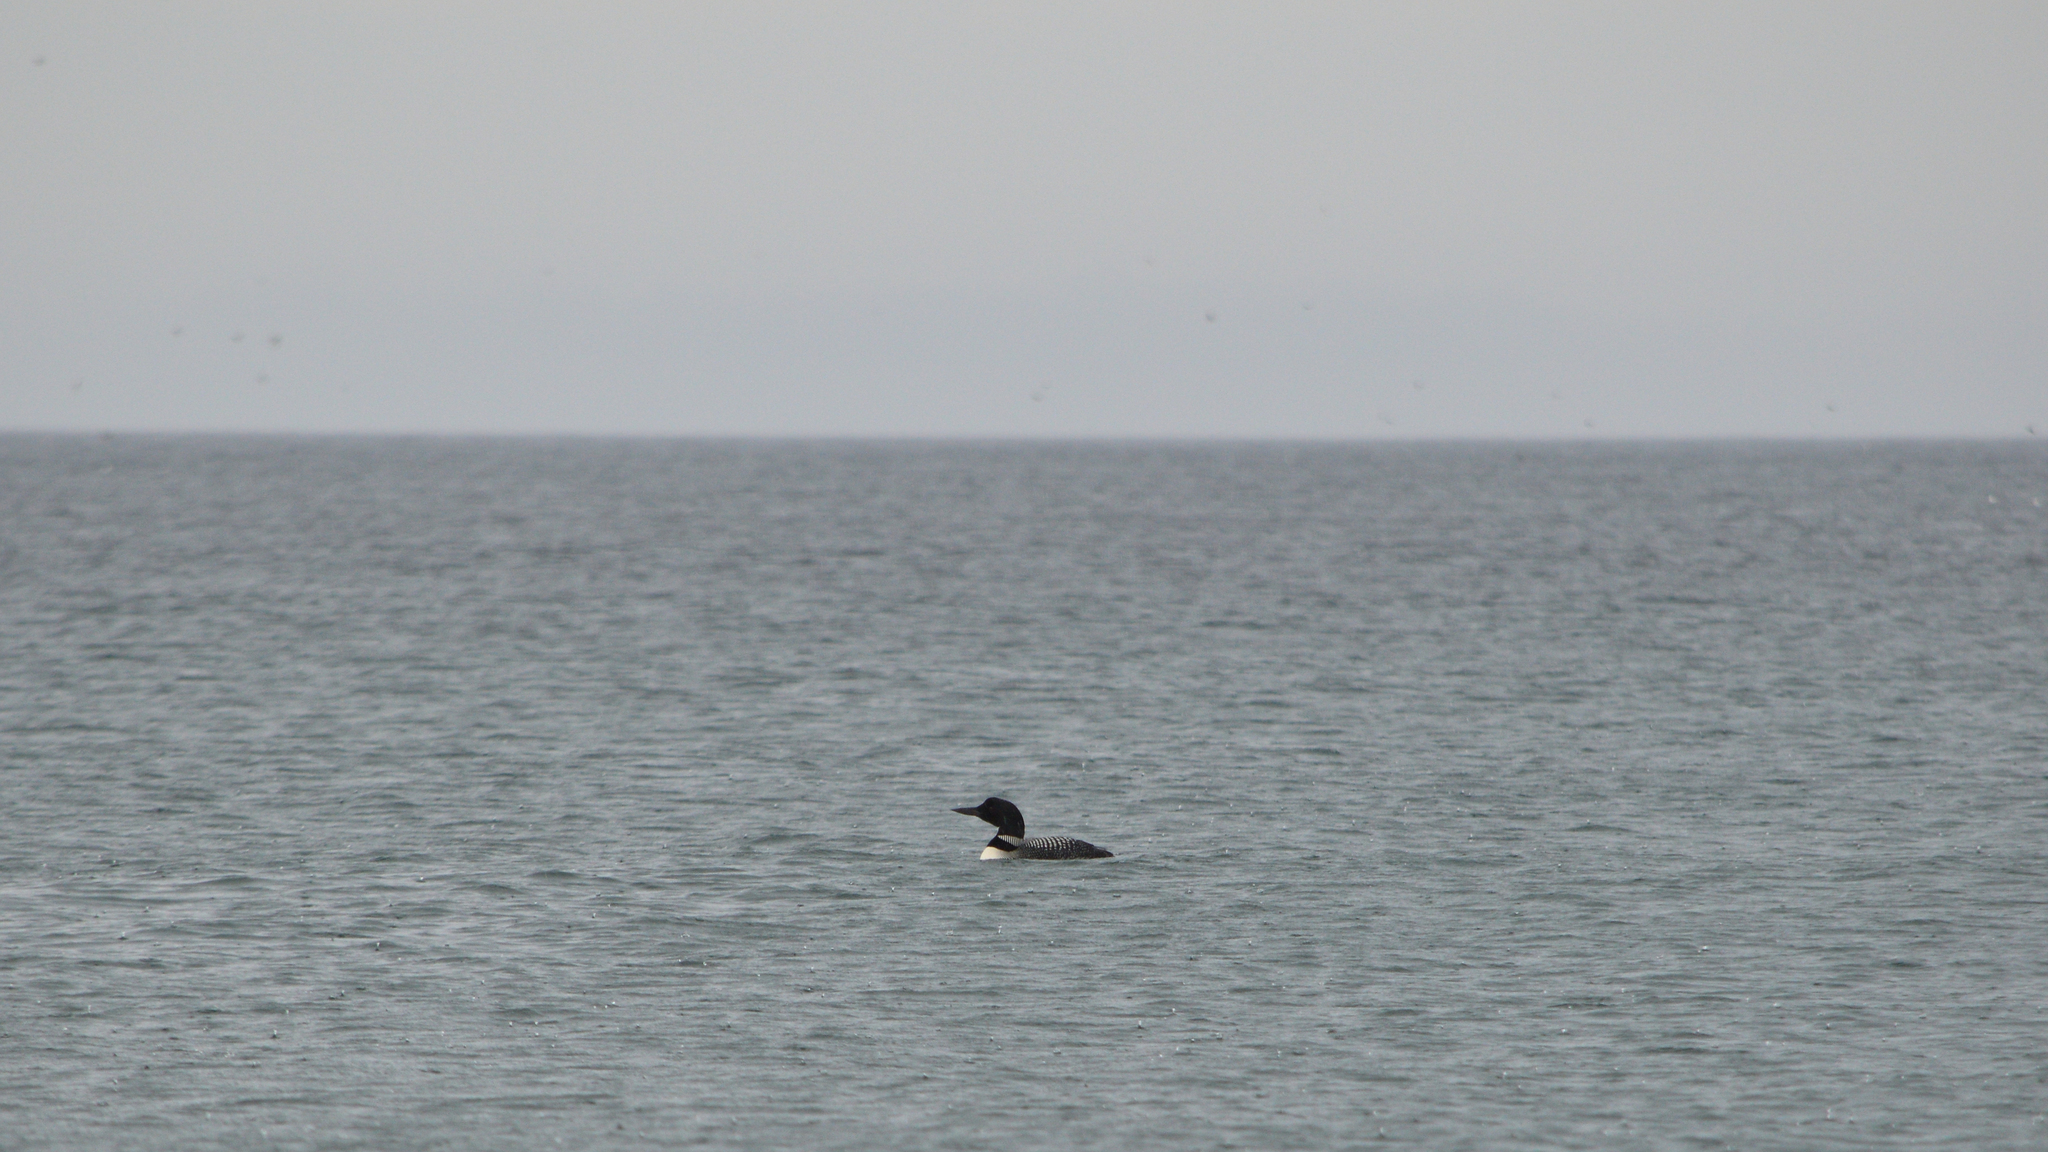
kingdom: Animalia
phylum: Chordata
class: Aves
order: Gaviiformes
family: Gaviidae
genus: Gavia
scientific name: Gavia immer
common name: Common loon
